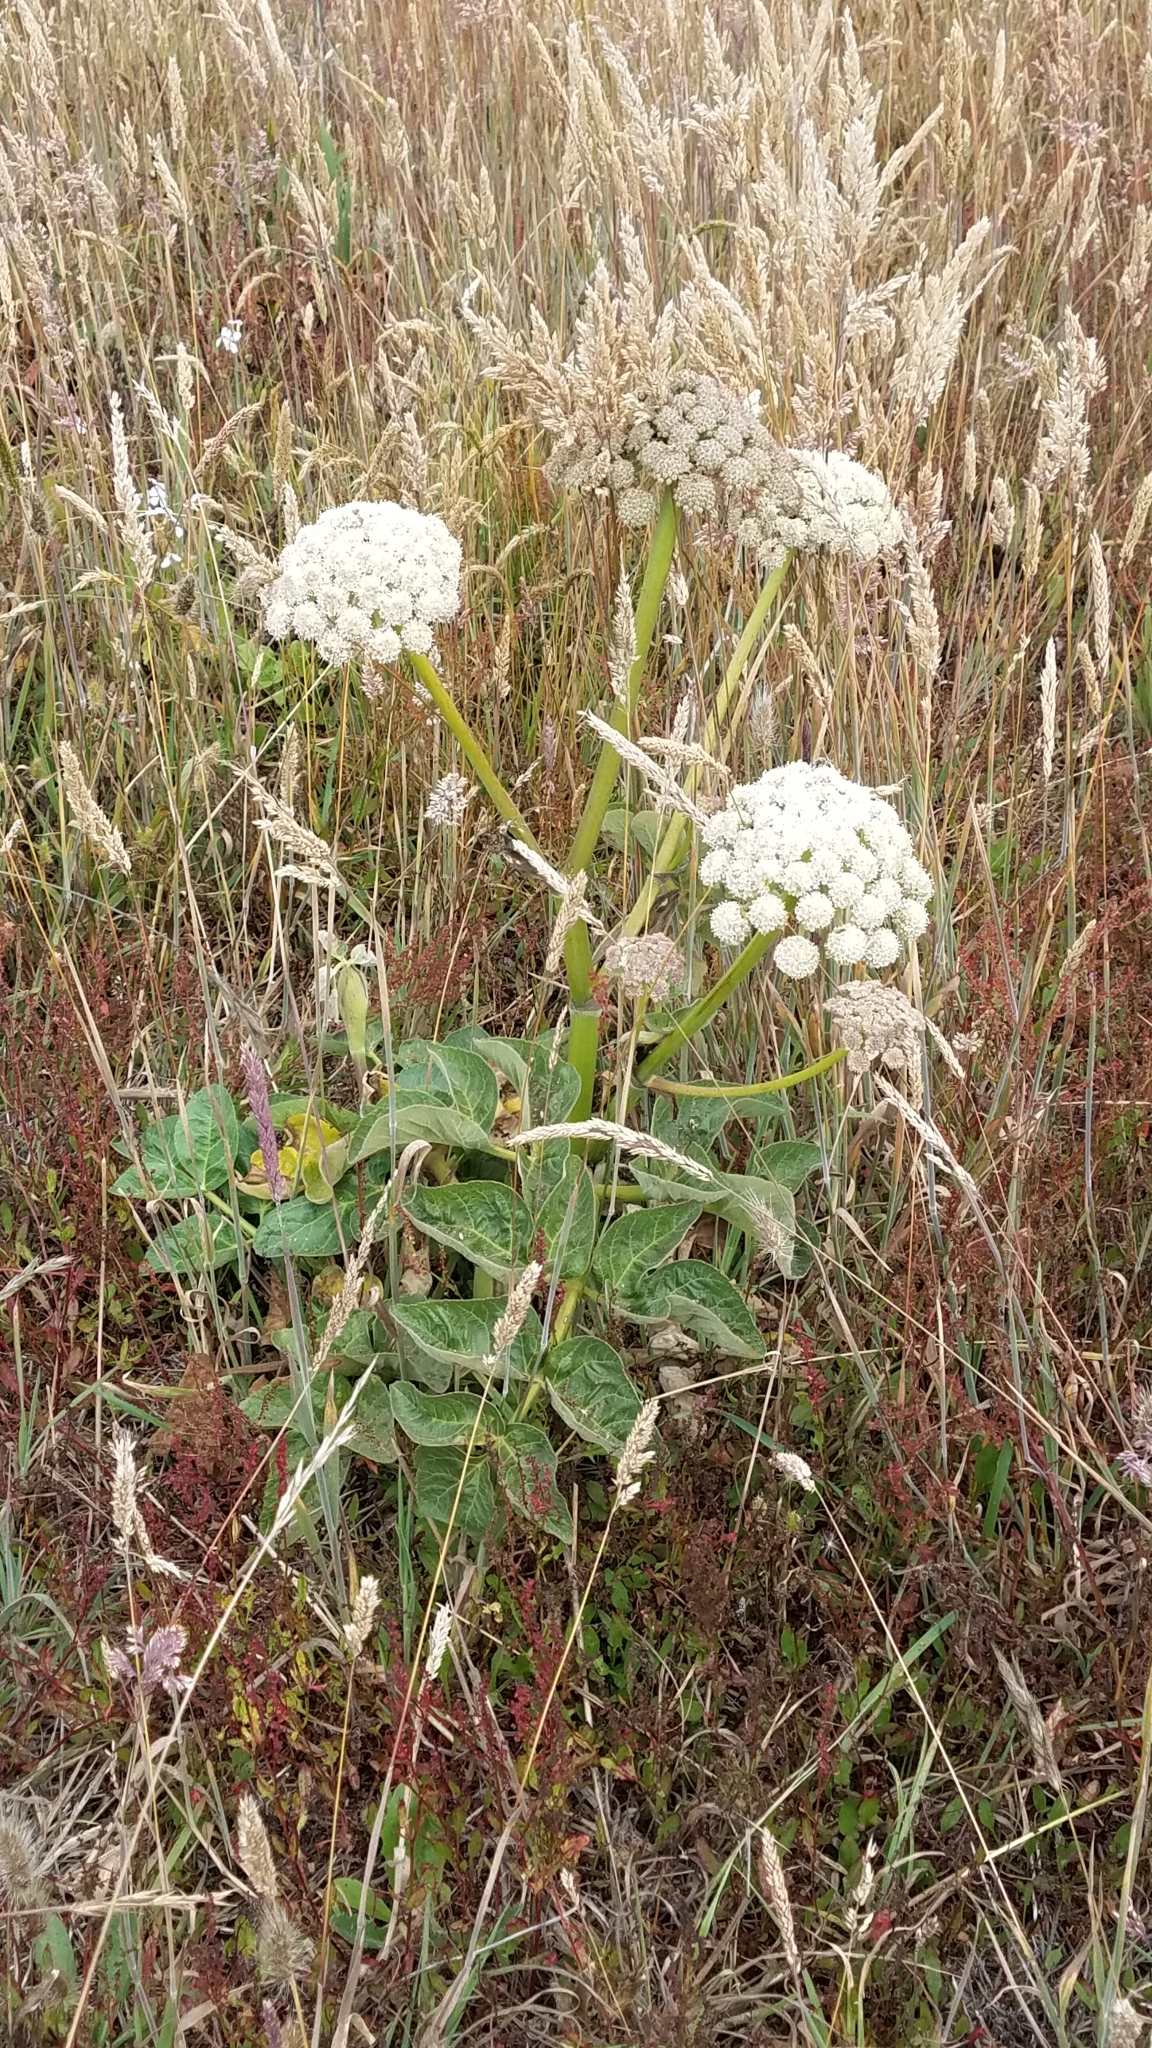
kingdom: Plantae
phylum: Tracheophyta
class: Magnoliopsida
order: Apiales
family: Apiaceae
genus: Angelica
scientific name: Angelica hendersonii
